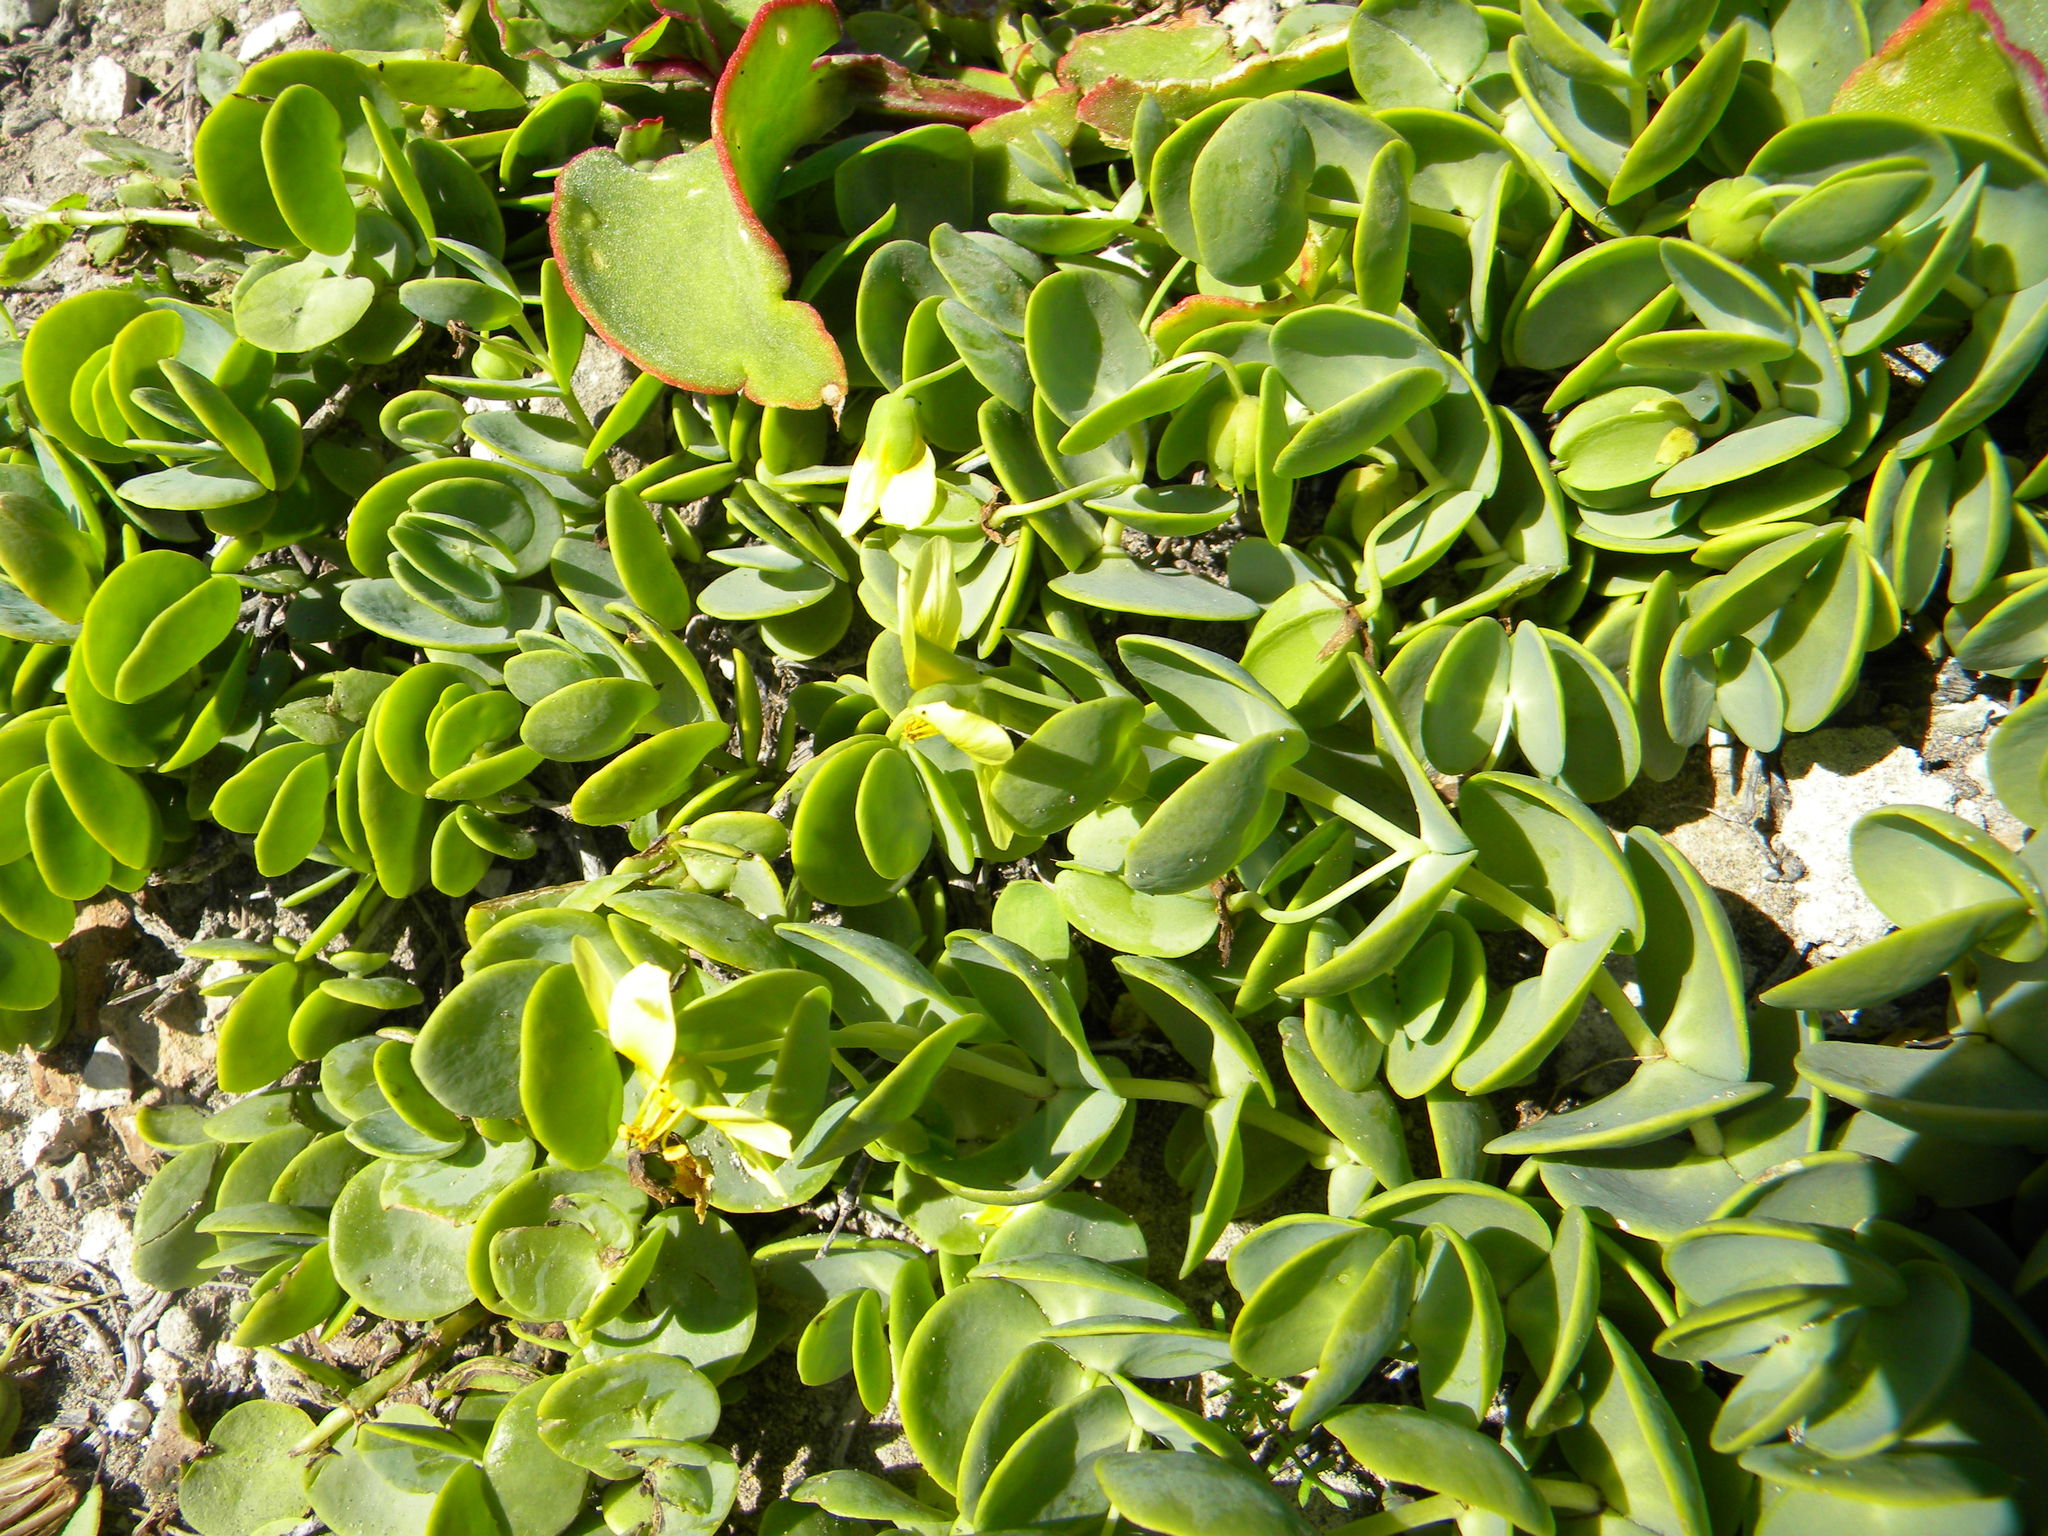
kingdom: Plantae
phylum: Tracheophyta
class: Magnoliopsida
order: Zygophyllales
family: Zygophyllaceae
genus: Roepera
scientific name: Roepera cordifolia
